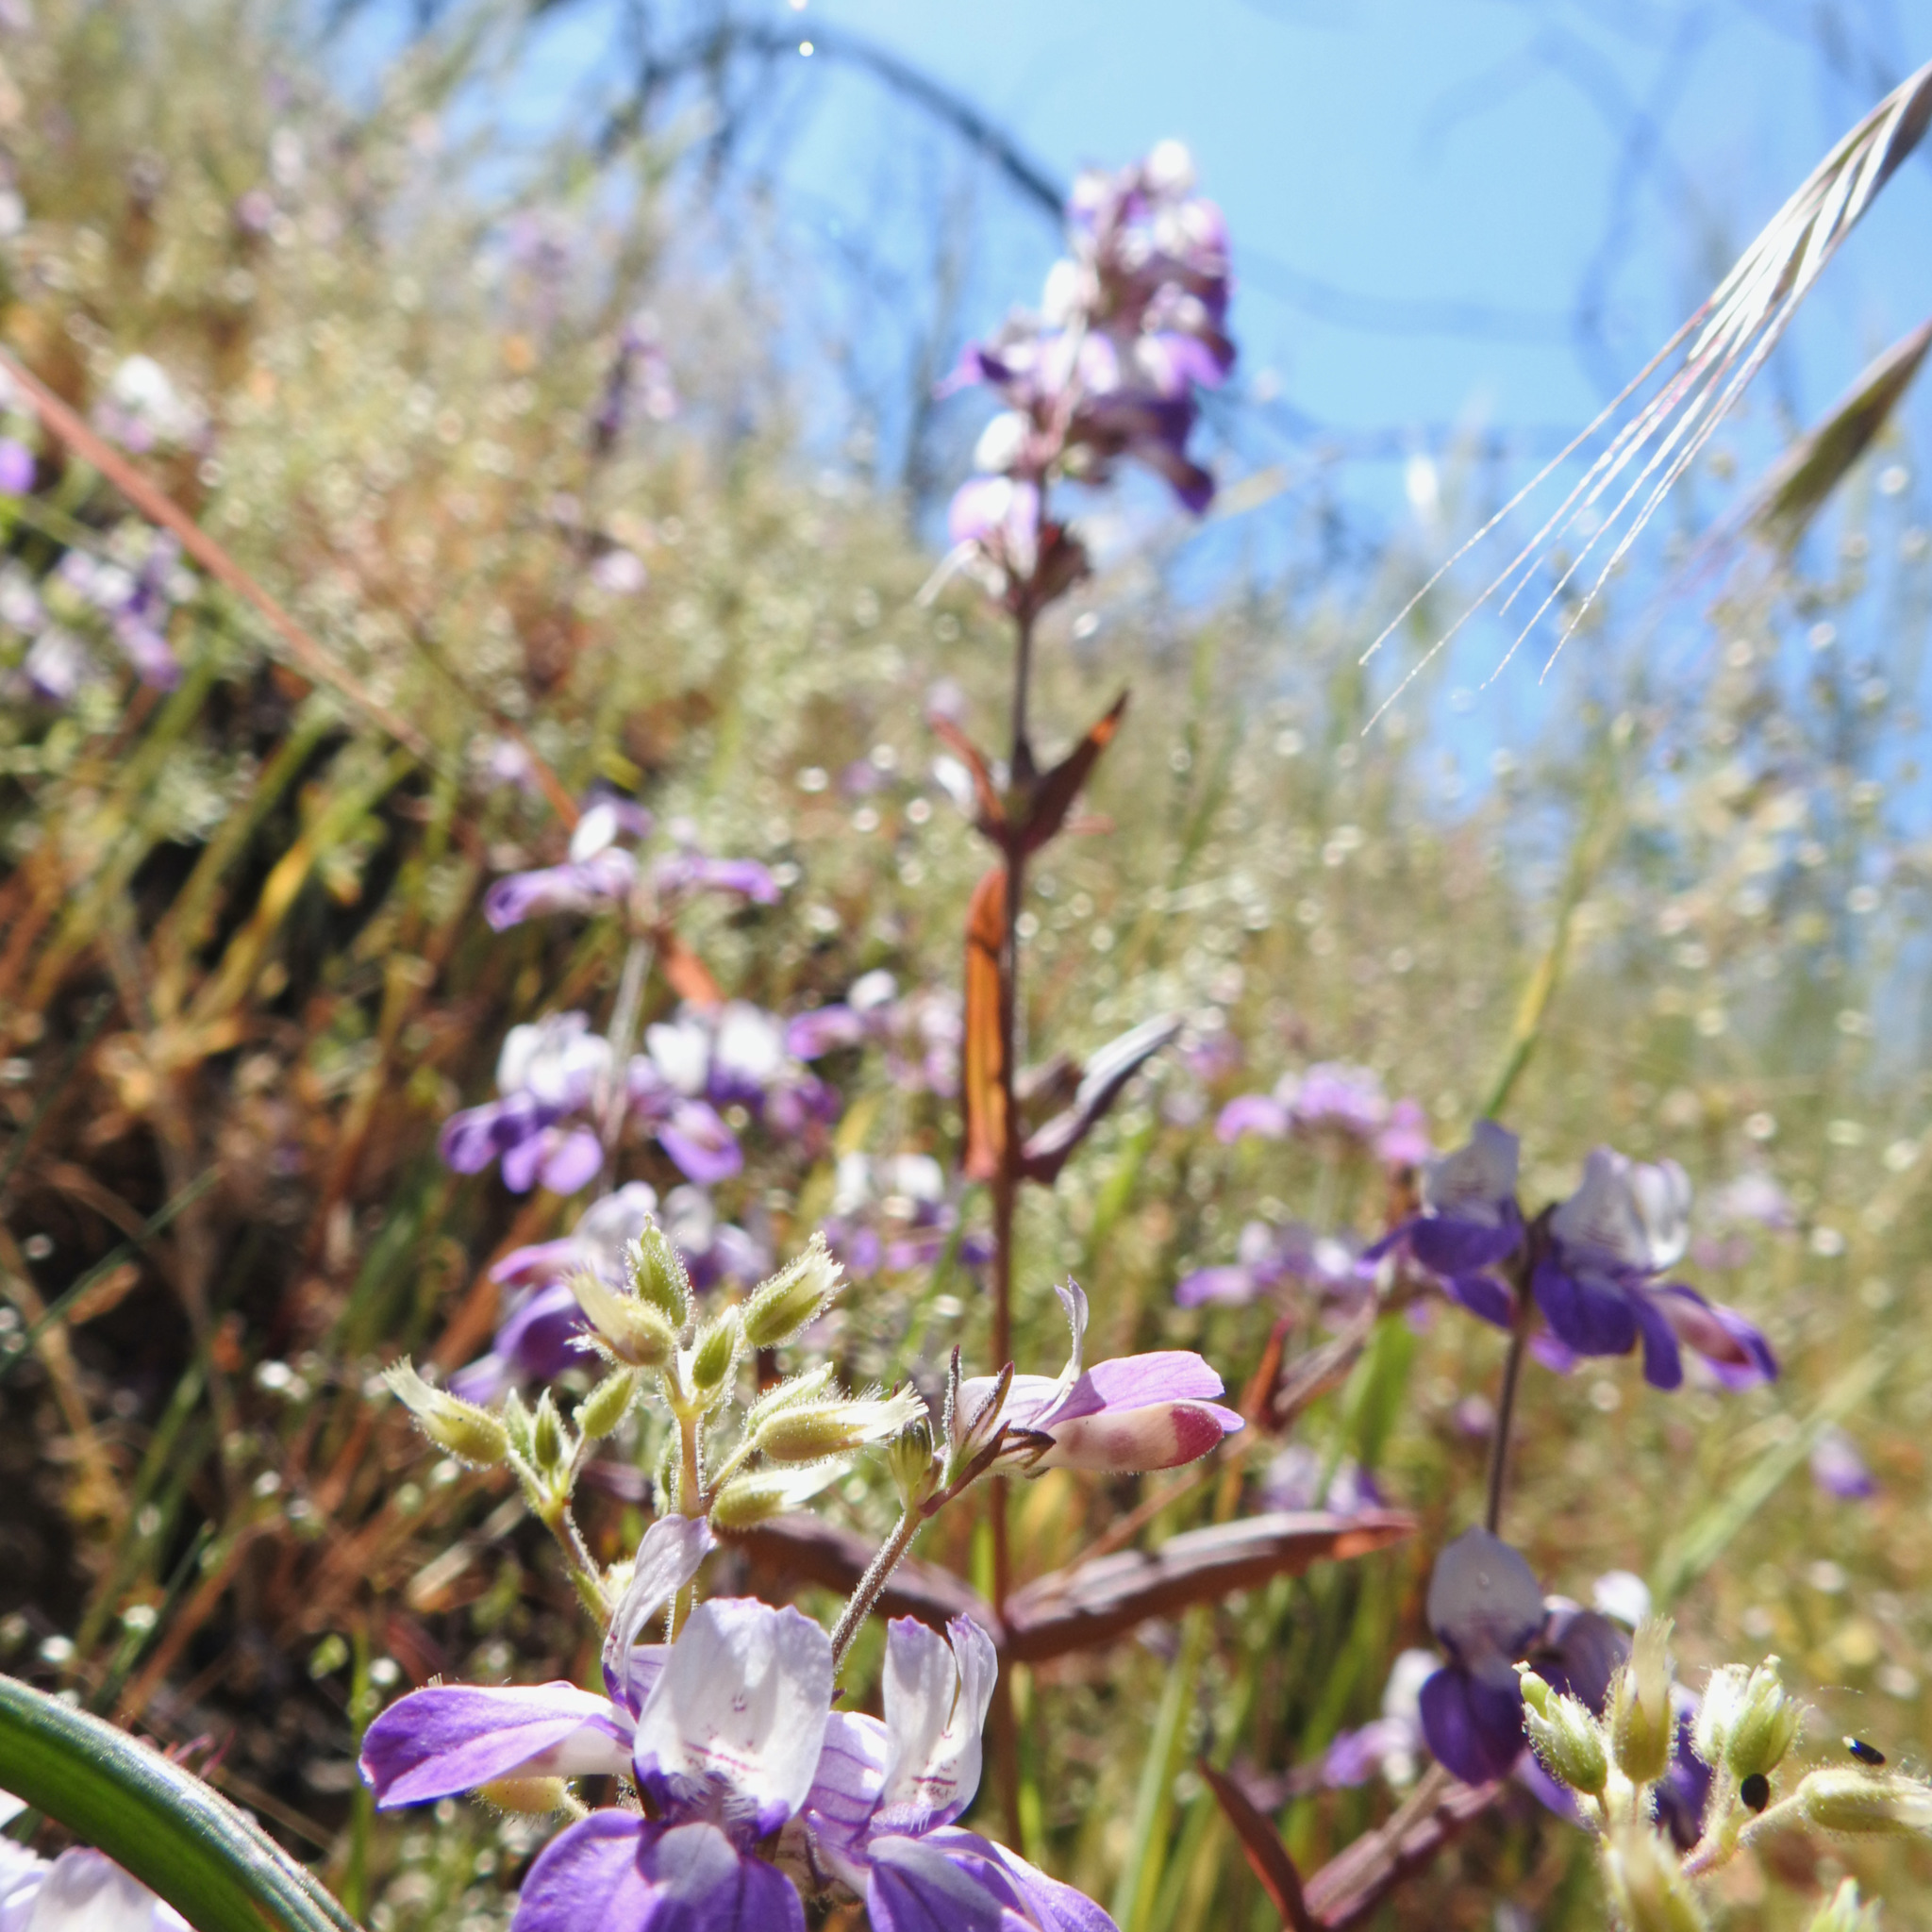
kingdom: Plantae
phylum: Tracheophyta
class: Magnoliopsida
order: Lamiales
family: Plantaginaceae
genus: Collinsia
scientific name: Collinsia heterophylla
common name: Chinese-houses
